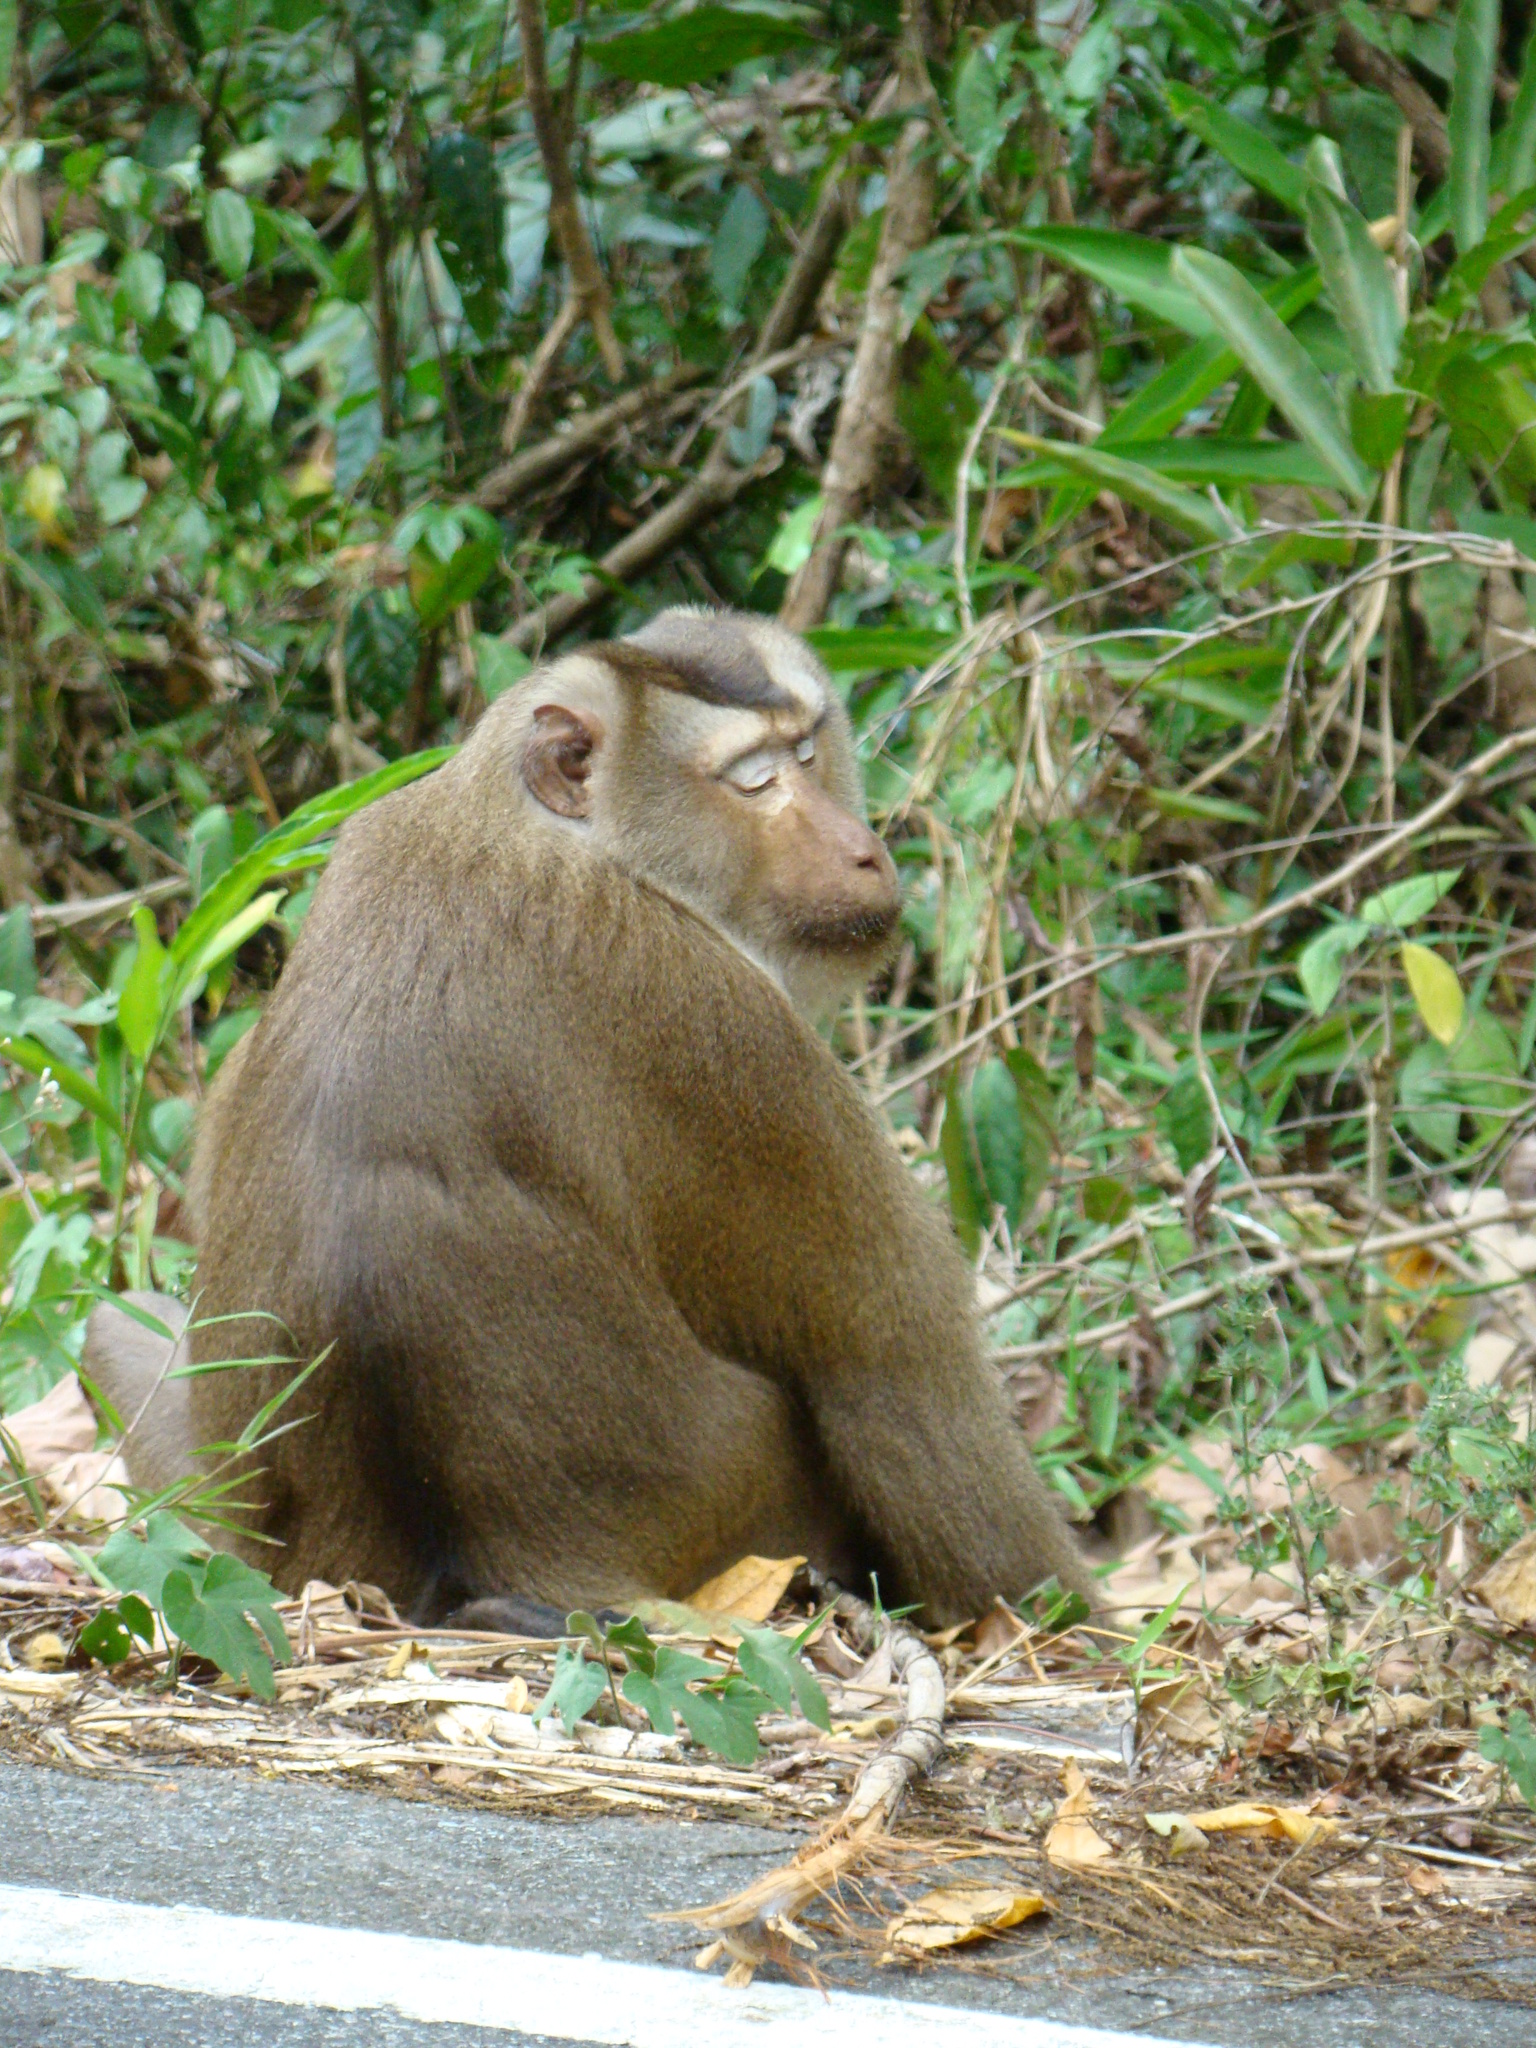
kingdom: Animalia
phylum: Chordata
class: Mammalia
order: Primates
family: Cercopithecidae
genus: Macaca
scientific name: Macaca leonina
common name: Northern pig-tailed macaque
